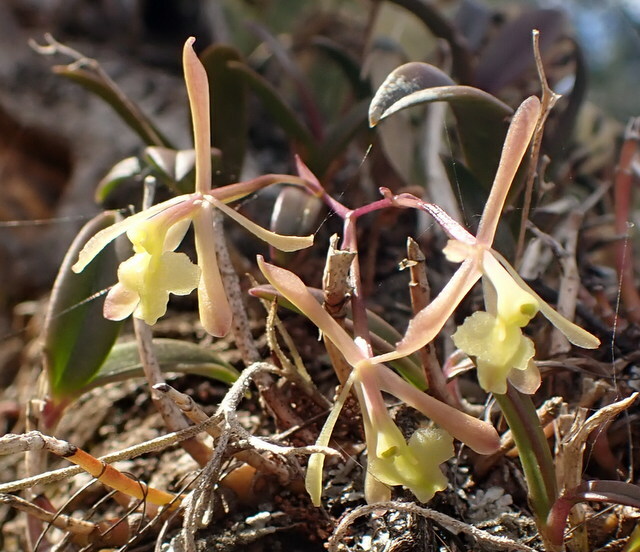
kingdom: Plantae
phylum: Tracheophyta
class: Liliopsida
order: Asparagales
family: Orchidaceae
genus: Epidendrum
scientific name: Epidendrum conopseum
